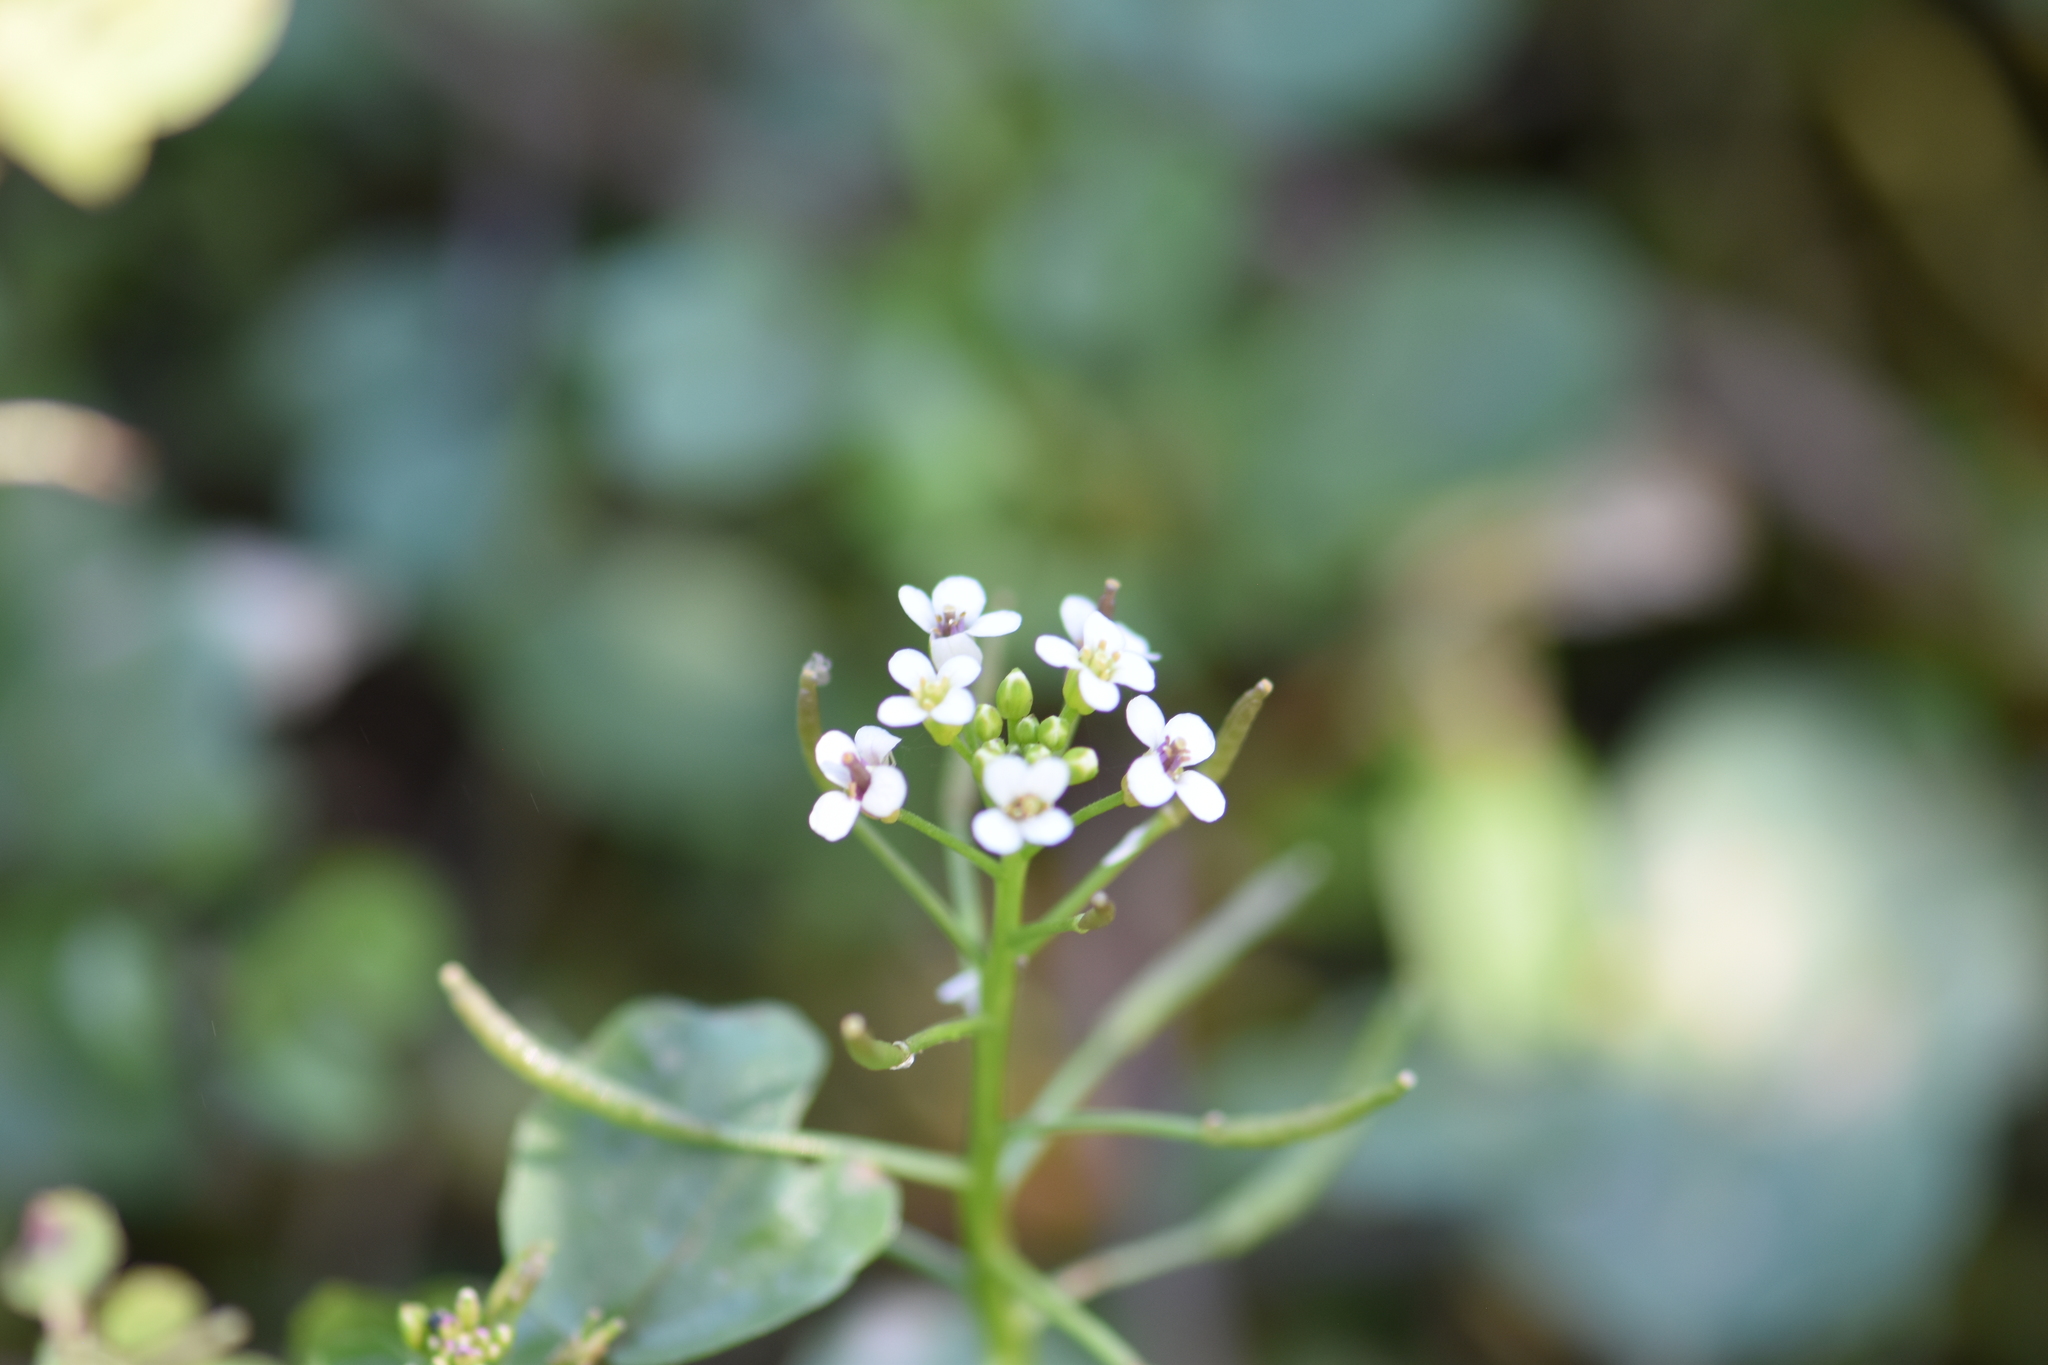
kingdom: Plantae
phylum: Tracheophyta
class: Magnoliopsida
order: Brassicales
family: Brassicaceae
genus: Nasturtium
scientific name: Nasturtium officinale
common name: Watercress
